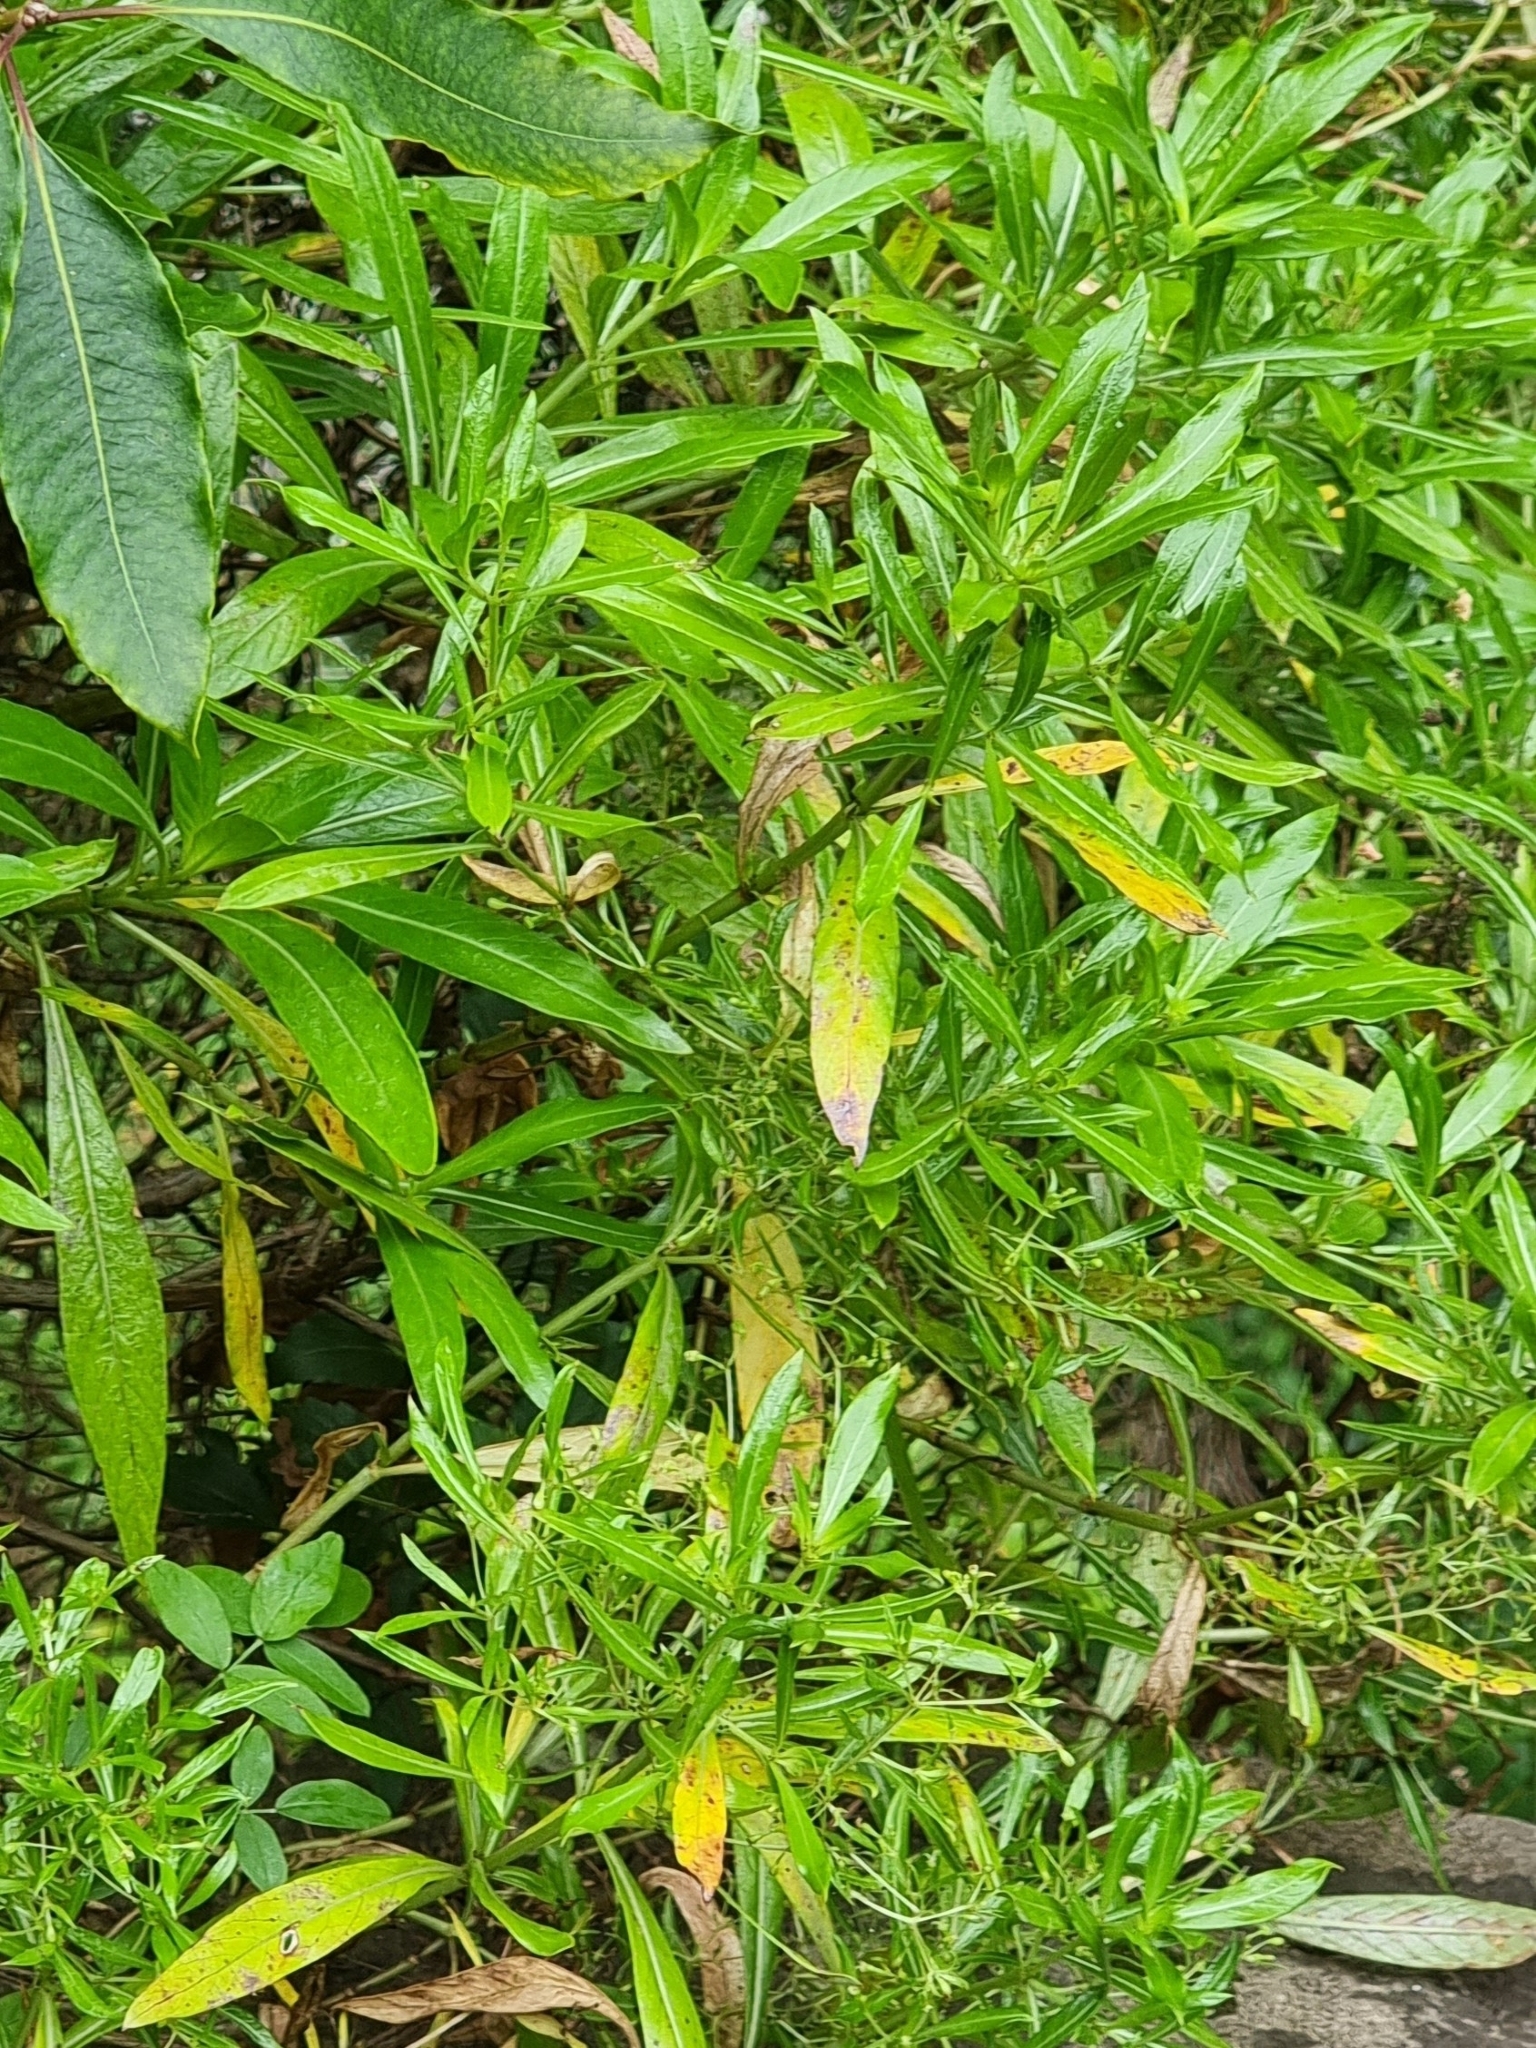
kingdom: Plantae
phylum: Tracheophyta
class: Magnoliopsida
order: Gentianales
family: Rubiaceae
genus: Phyllis
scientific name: Phyllis nobla
